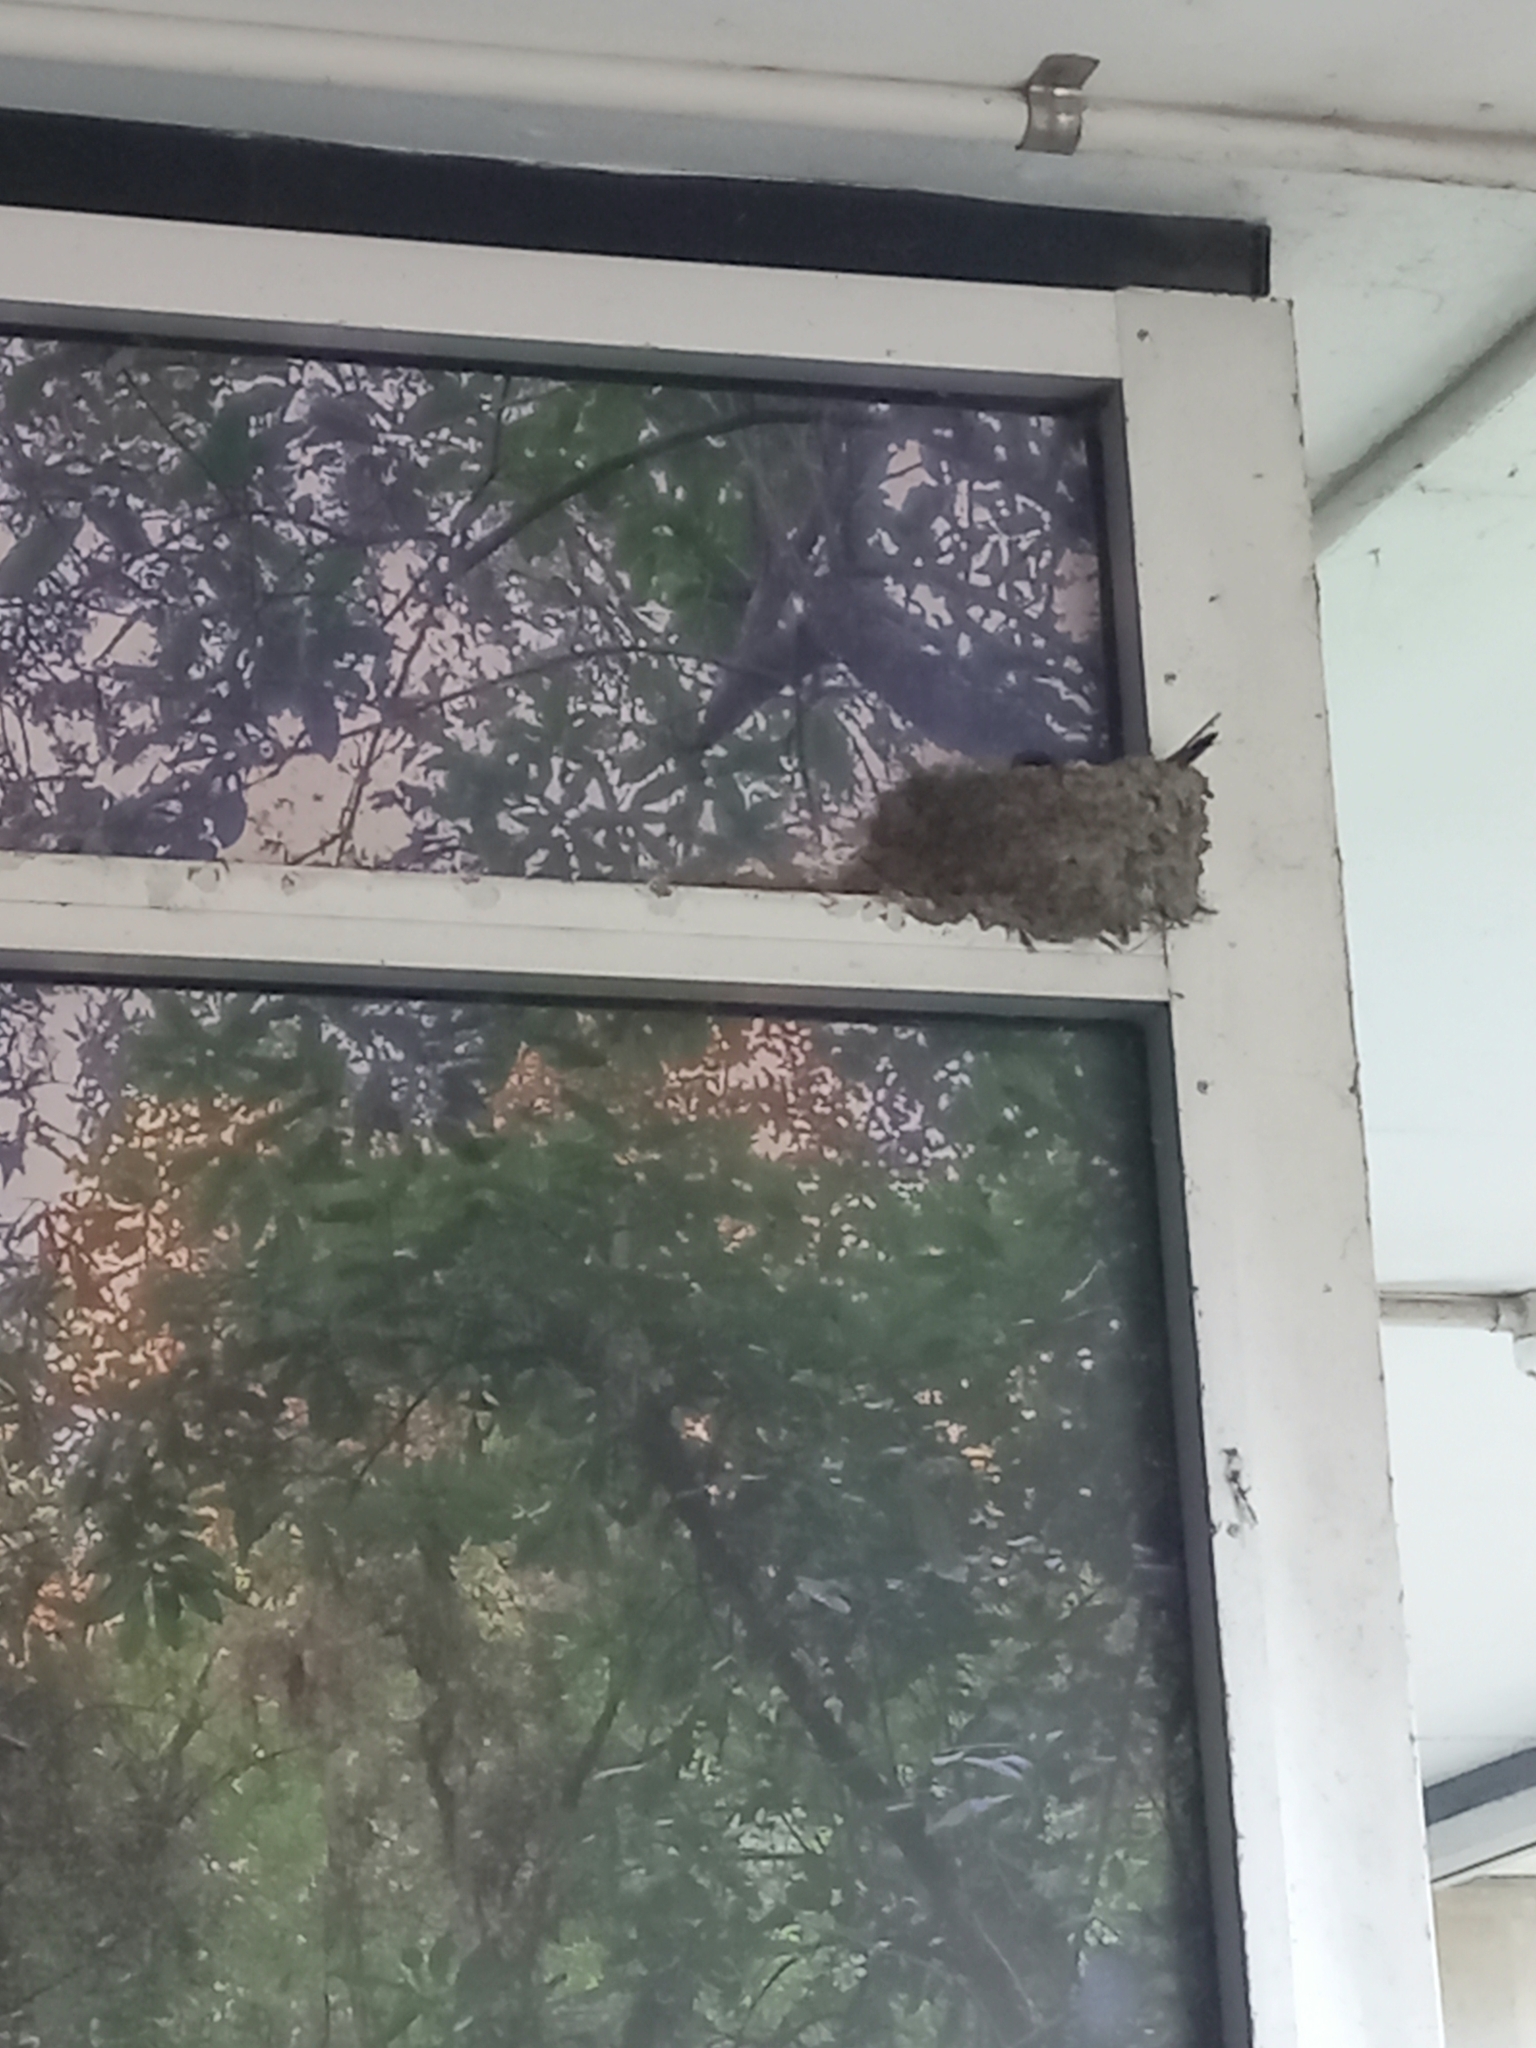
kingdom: Animalia
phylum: Chordata
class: Aves
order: Passeriformes
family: Hirundinidae
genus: Hirundo
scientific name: Hirundo neoxena
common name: Welcome swallow
